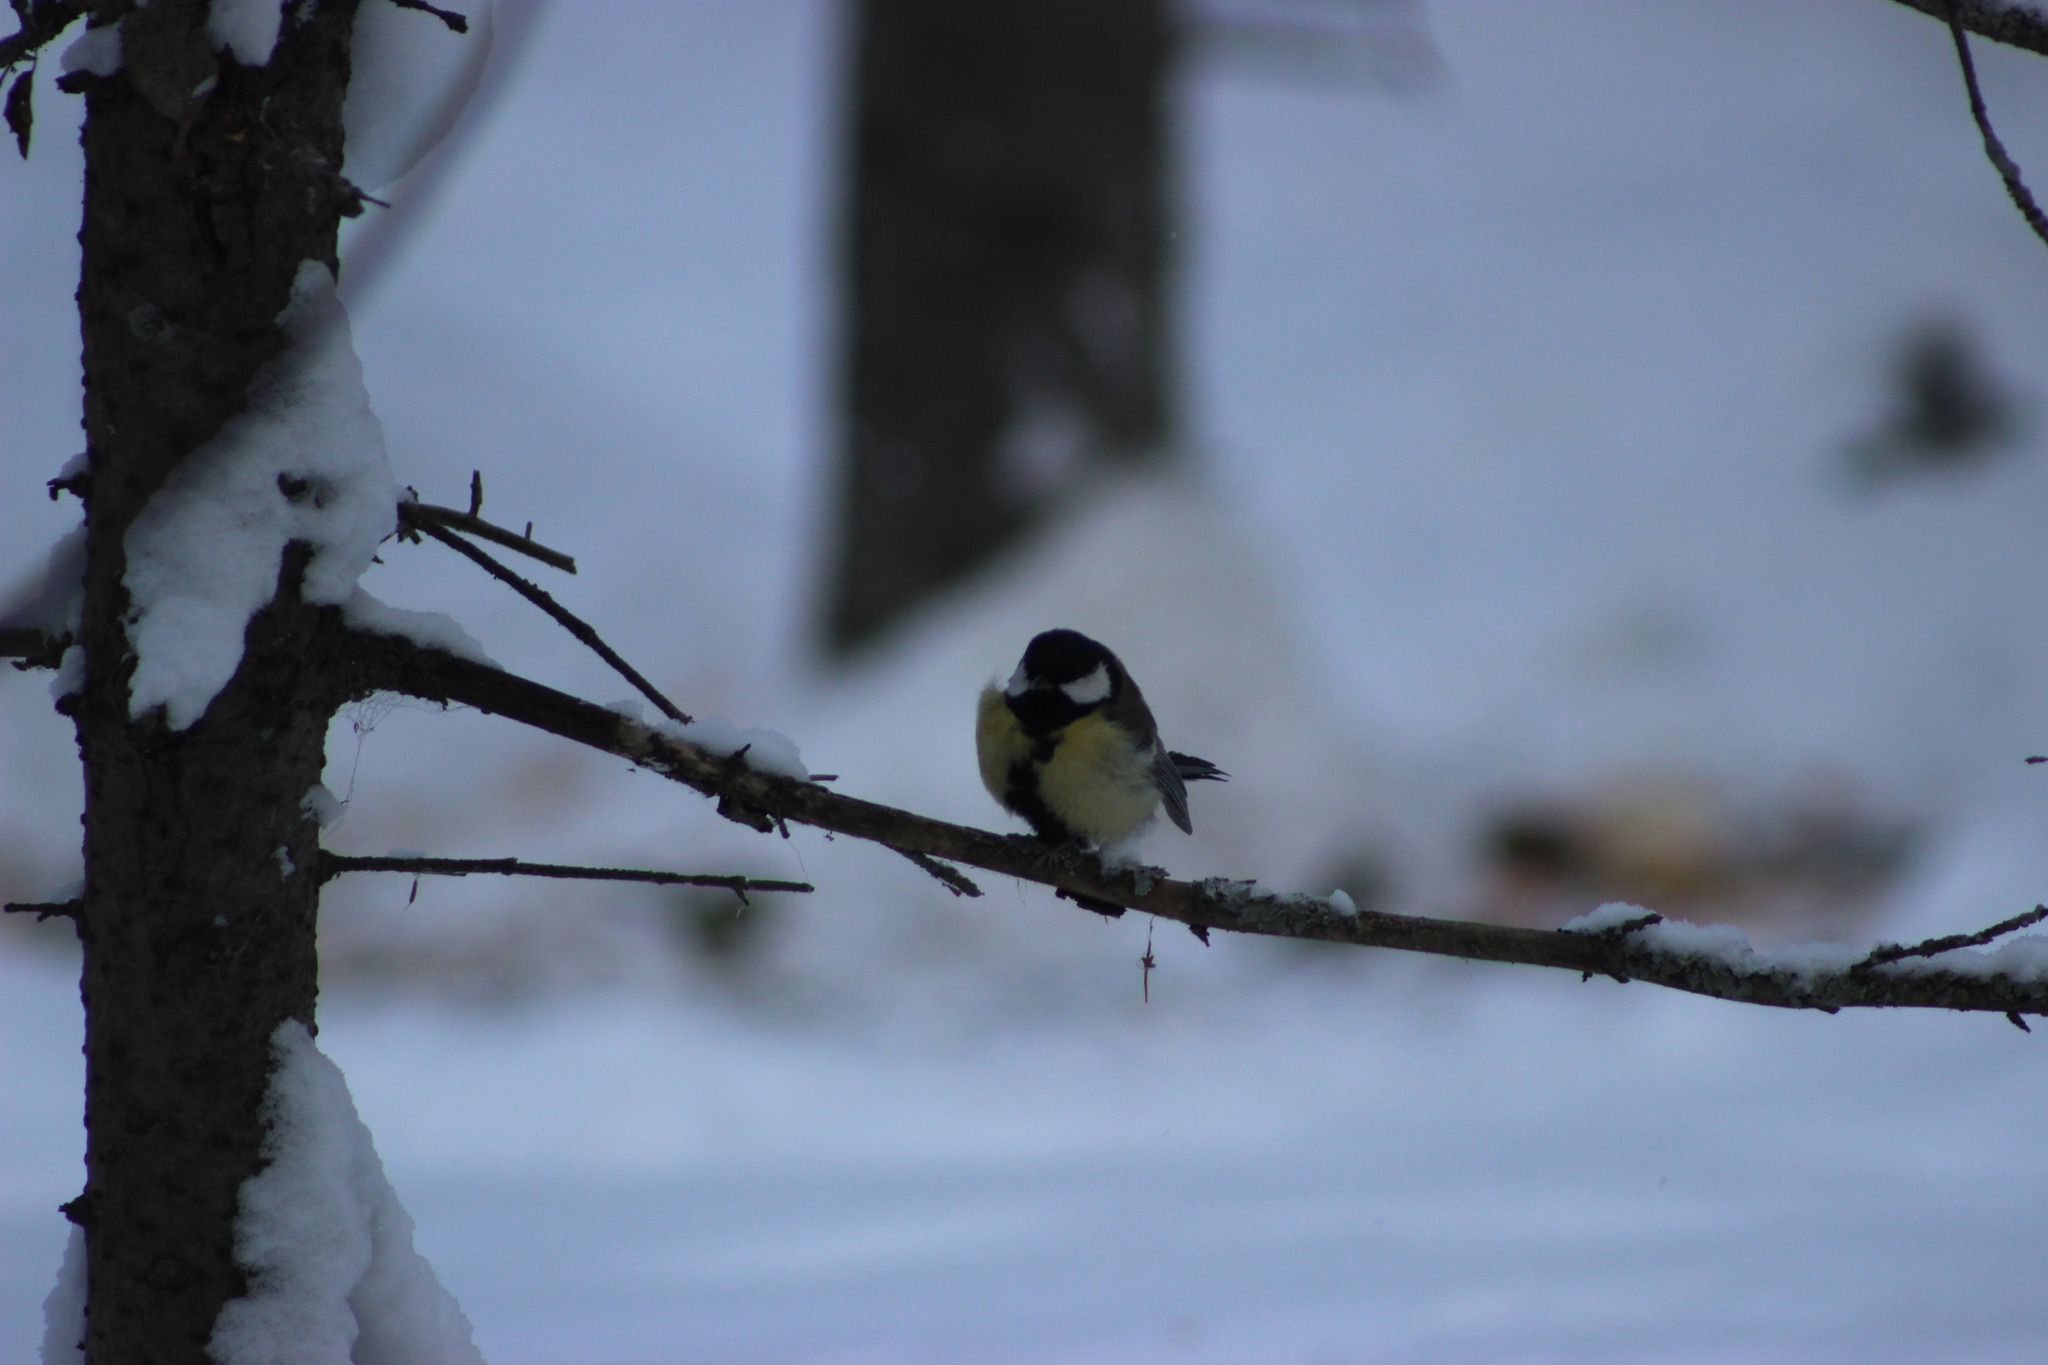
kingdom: Animalia
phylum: Chordata
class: Aves
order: Passeriformes
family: Paridae
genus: Parus
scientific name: Parus major
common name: Great tit
